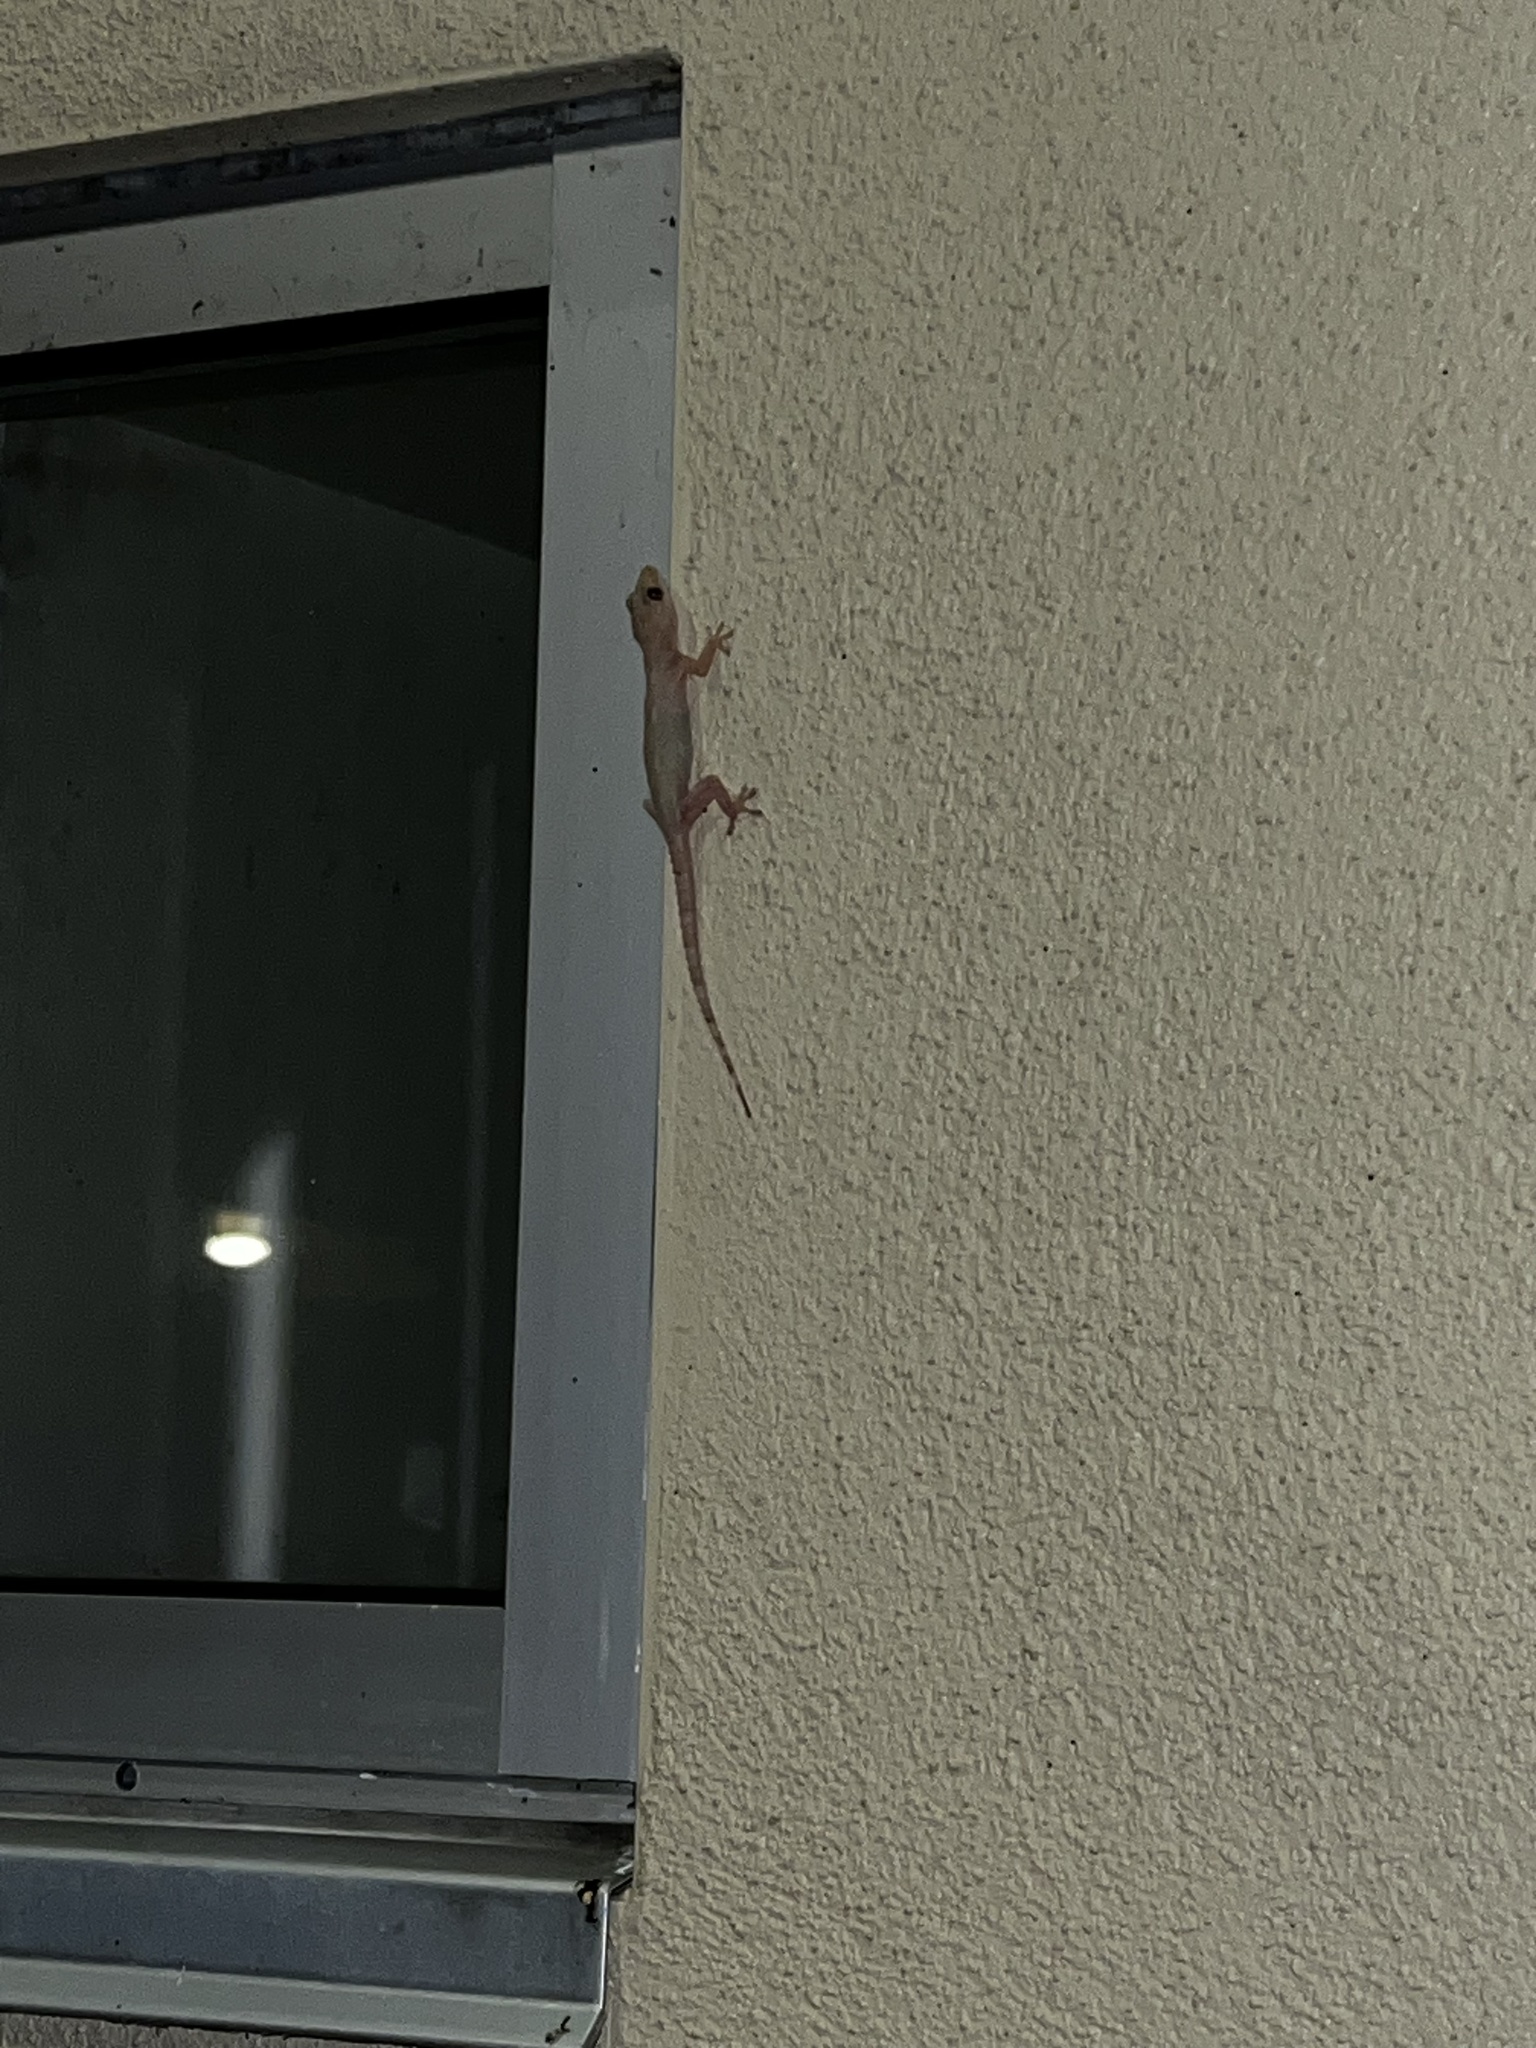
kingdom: Animalia
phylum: Chordata
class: Squamata
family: Gekkonidae
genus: Hemidactylus
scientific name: Hemidactylus mabouia
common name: House gecko
